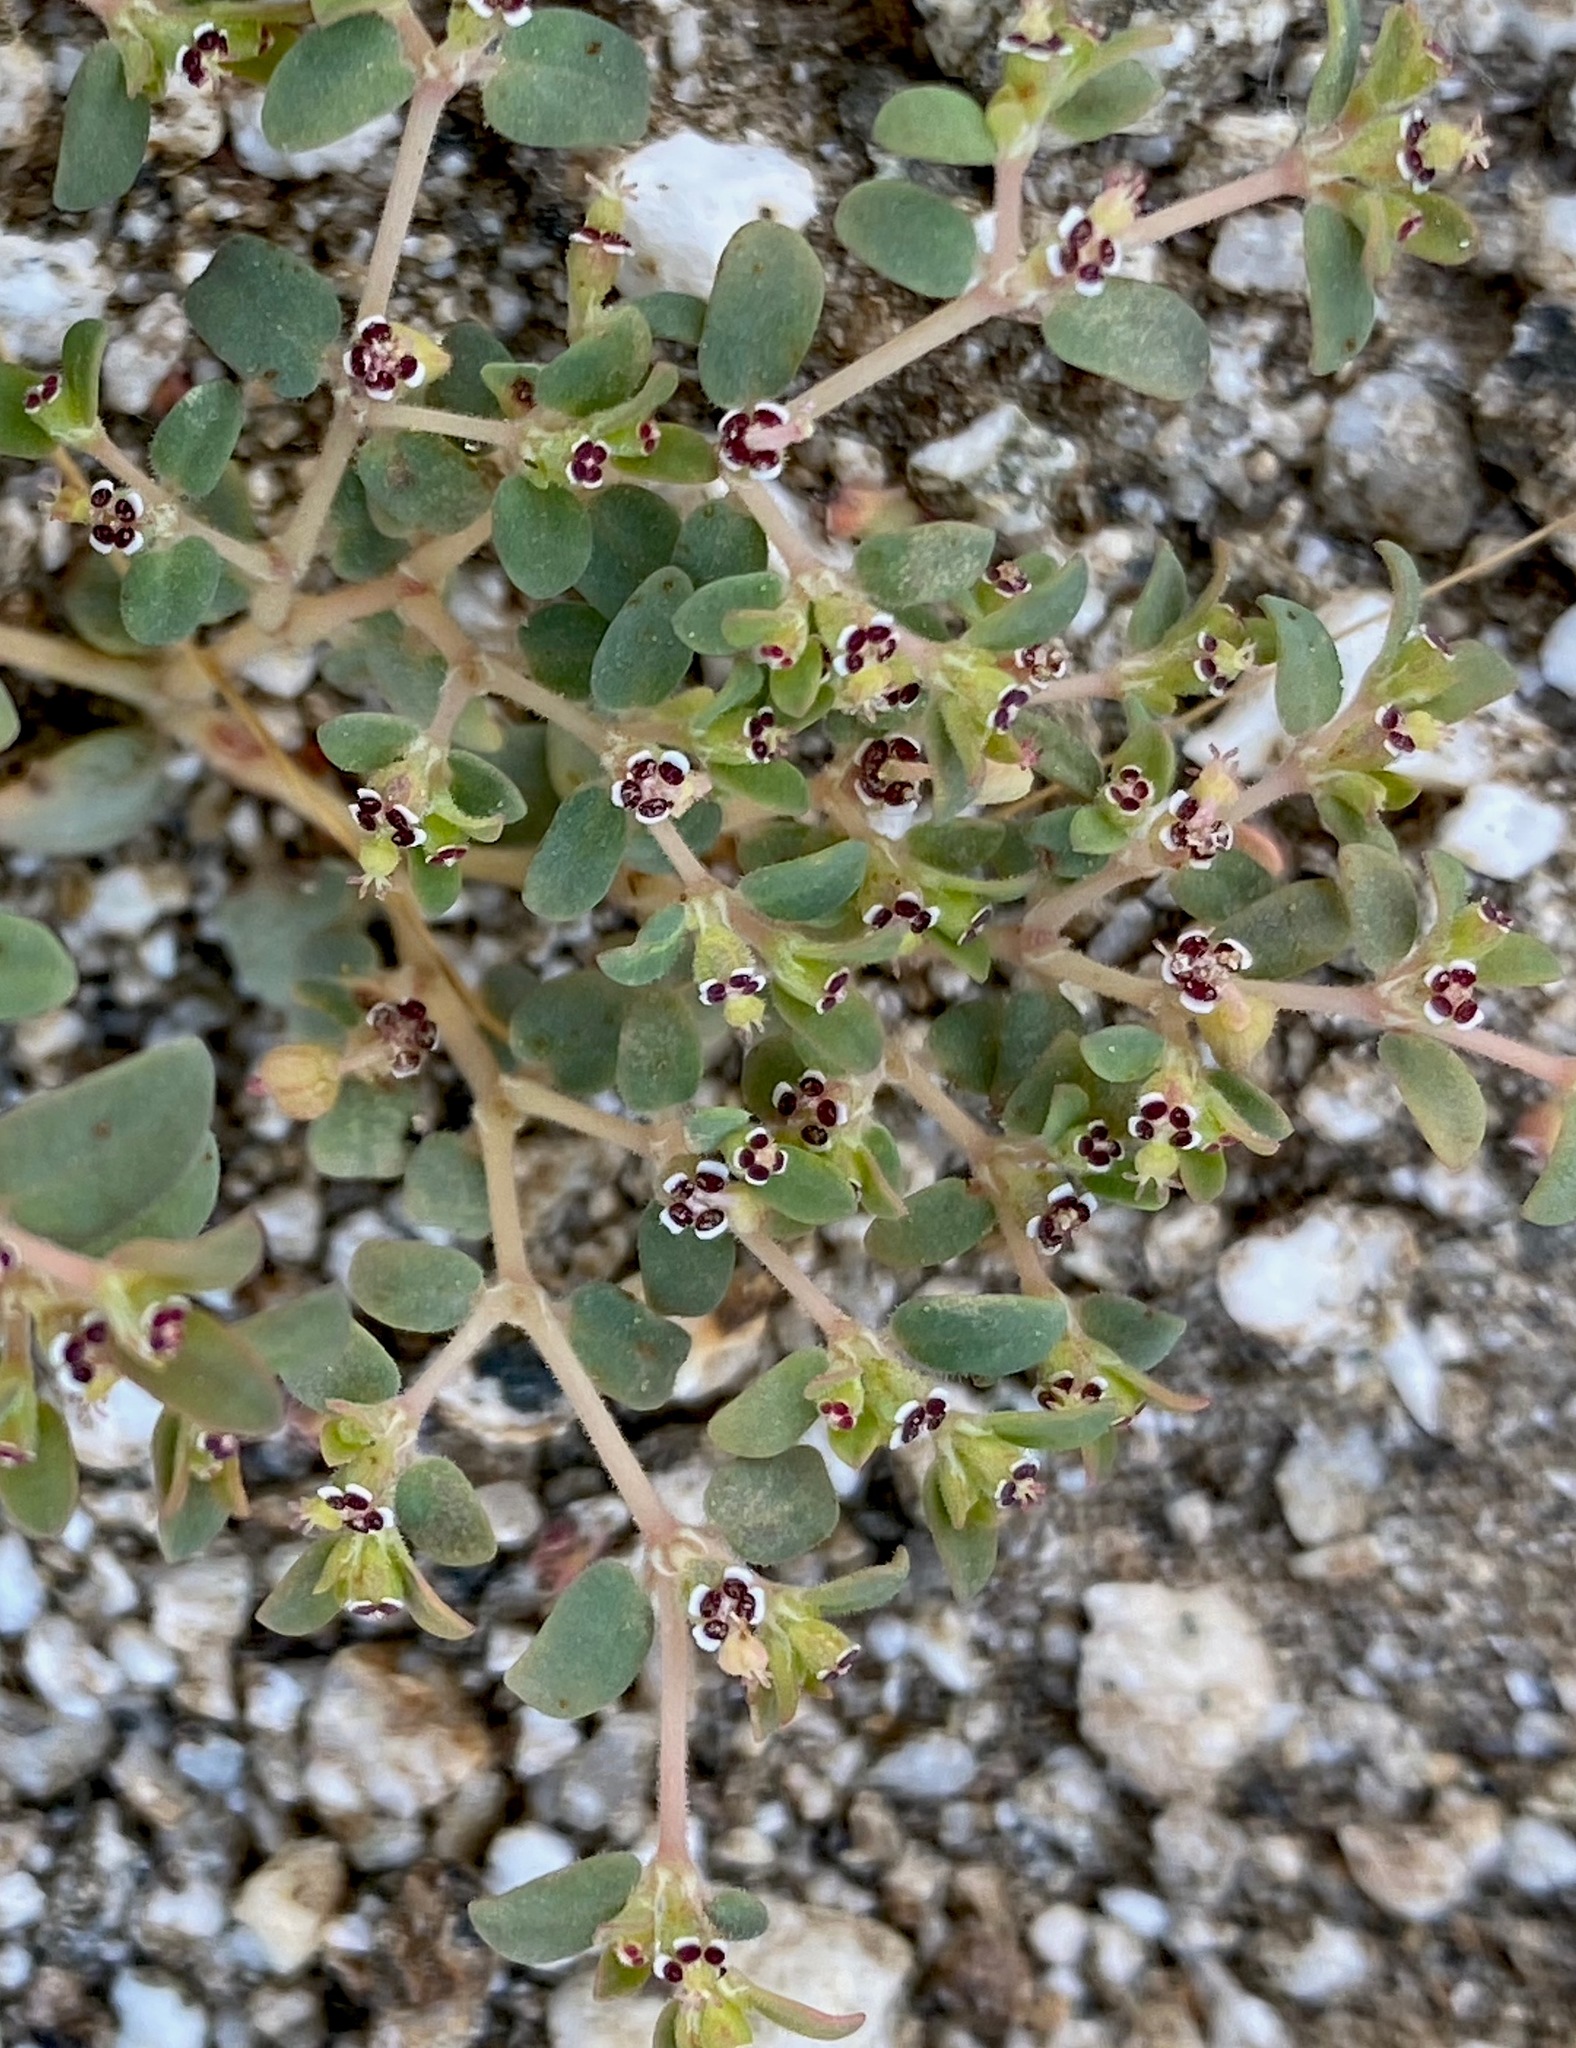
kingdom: Plantae
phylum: Tracheophyta
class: Magnoliopsida
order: Malpighiales
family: Euphorbiaceae
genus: Euphorbia
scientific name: Euphorbia polycarpa
